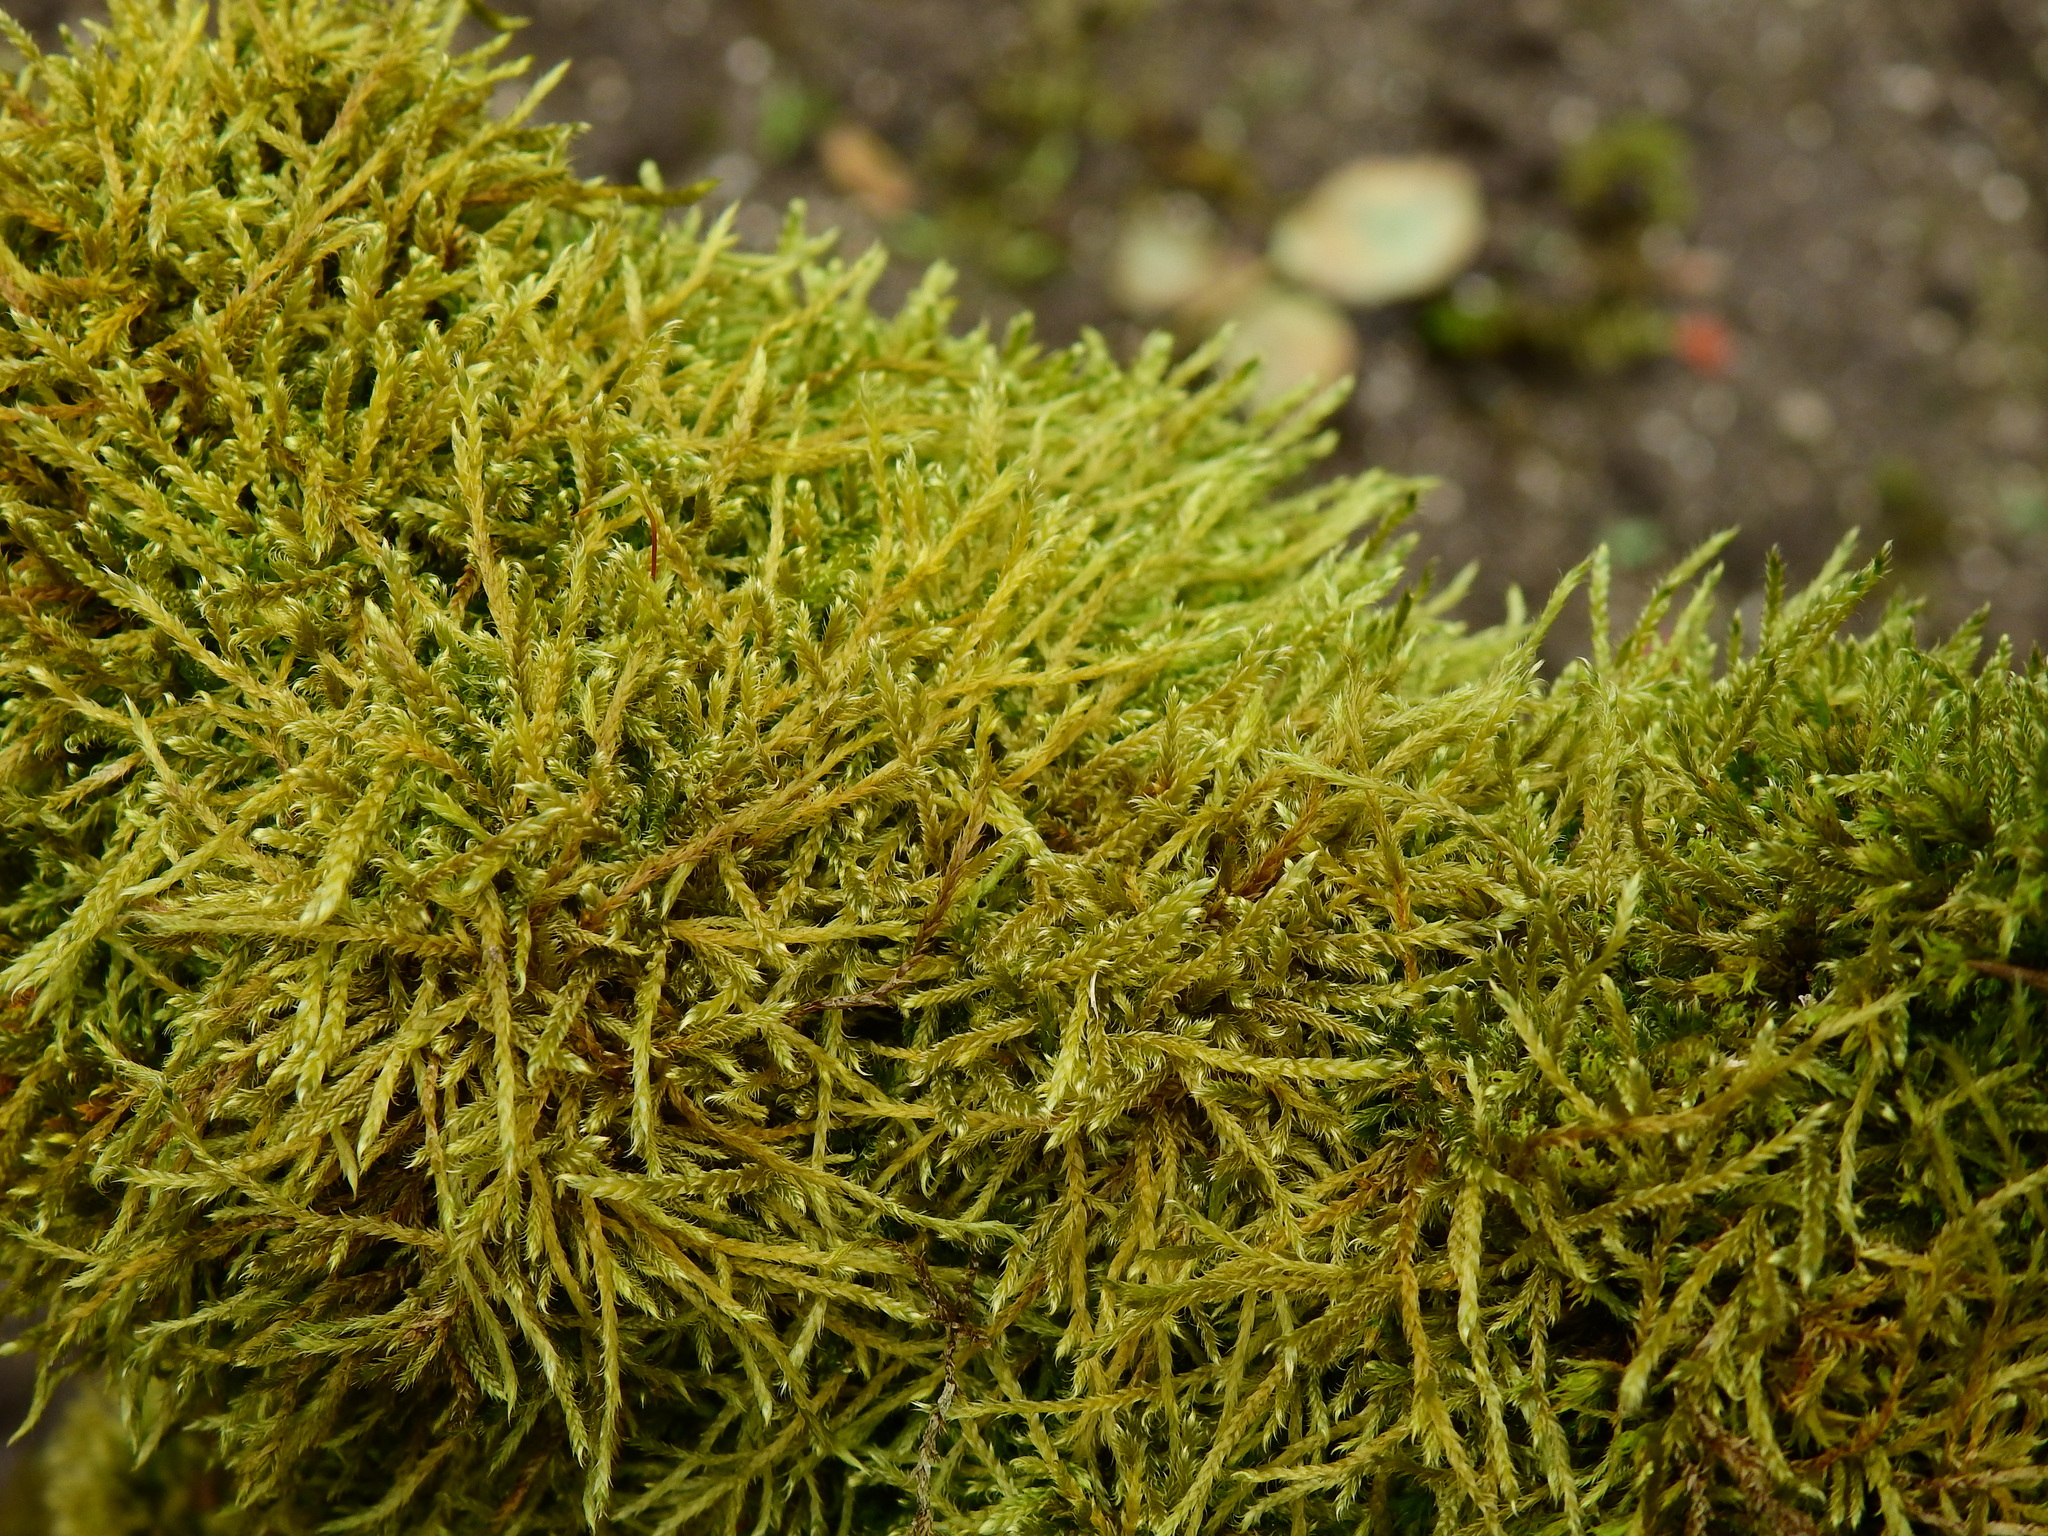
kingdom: Plantae
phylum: Bryophyta
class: Bryopsida
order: Hypnales
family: Leskeaceae
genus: Leskea
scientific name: Leskea polycarpa
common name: Many-fruited leske's moss
